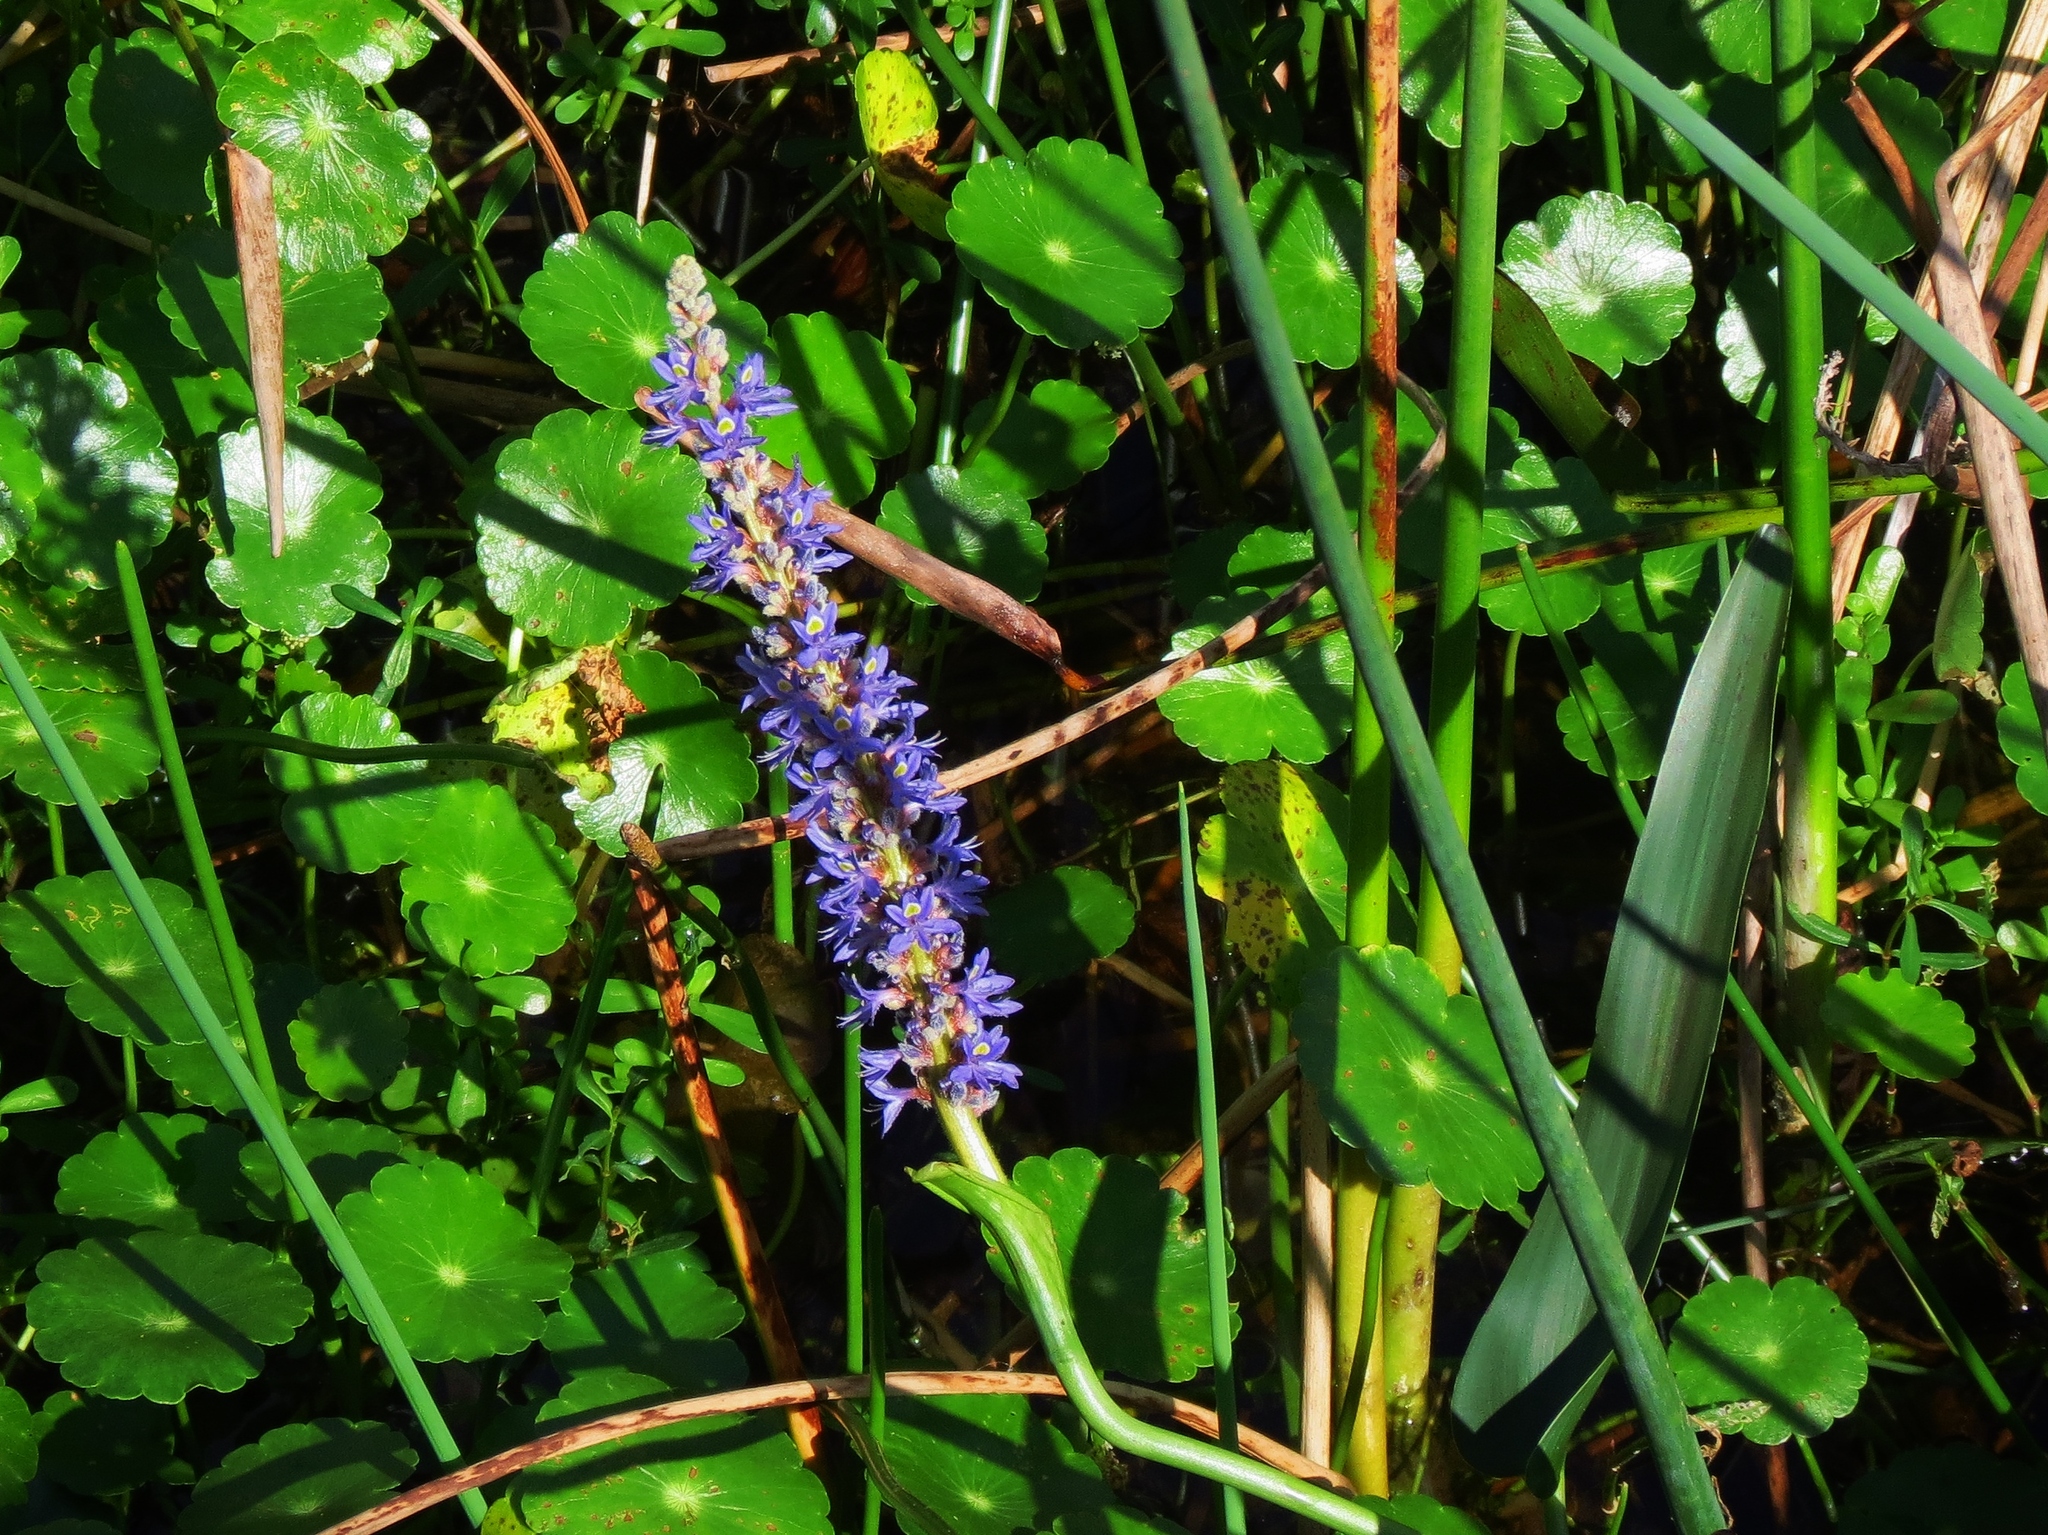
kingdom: Plantae
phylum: Tracheophyta
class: Liliopsida
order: Commelinales
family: Pontederiaceae
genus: Pontederia
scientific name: Pontederia cordata
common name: Pickerelweed
